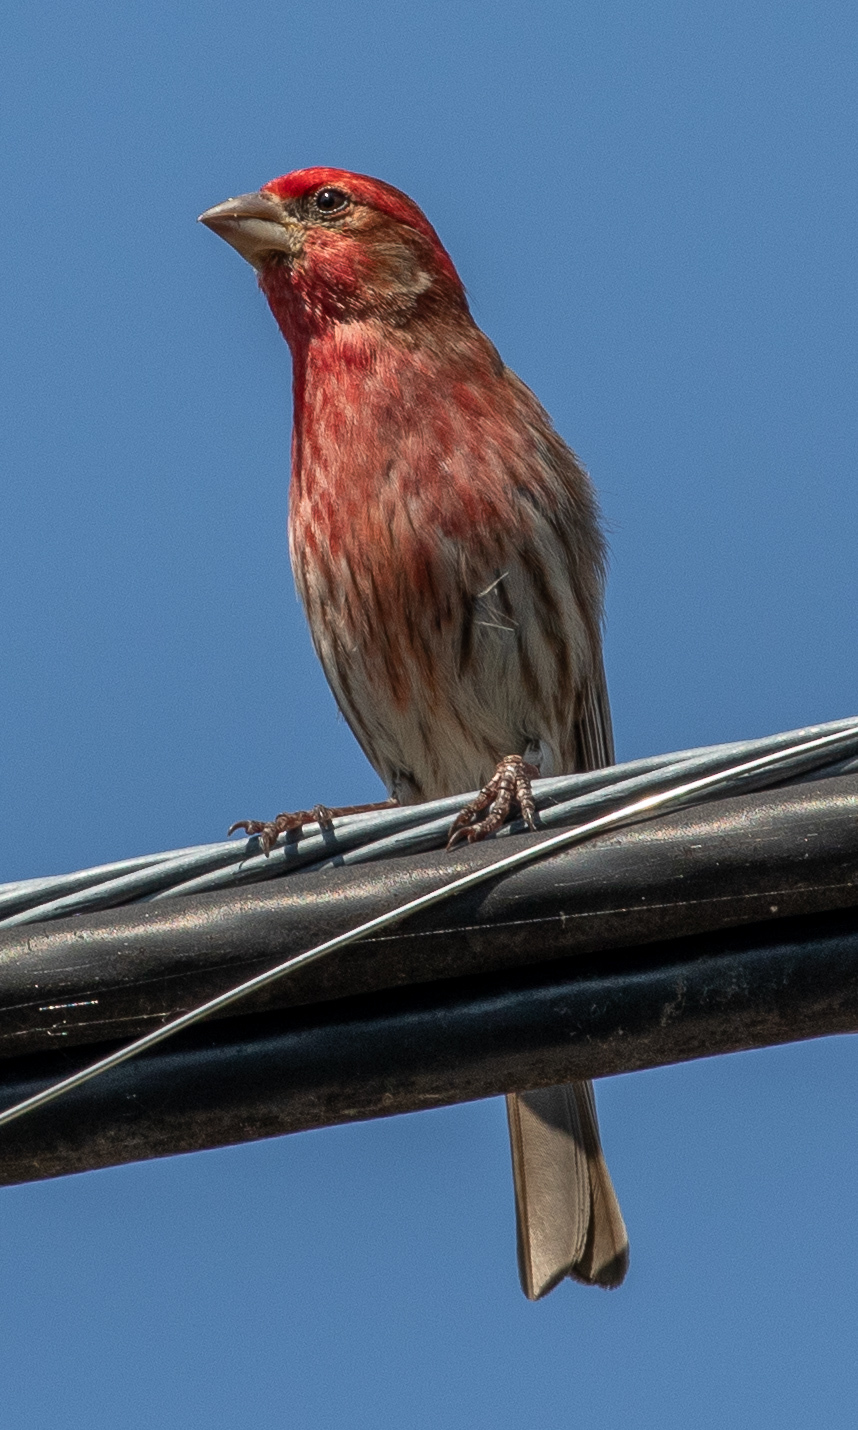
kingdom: Animalia
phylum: Chordata
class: Aves
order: Passeriformes
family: Fringillidae
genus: Haemorhous
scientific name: Haemorhous mexicanus
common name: House finch
